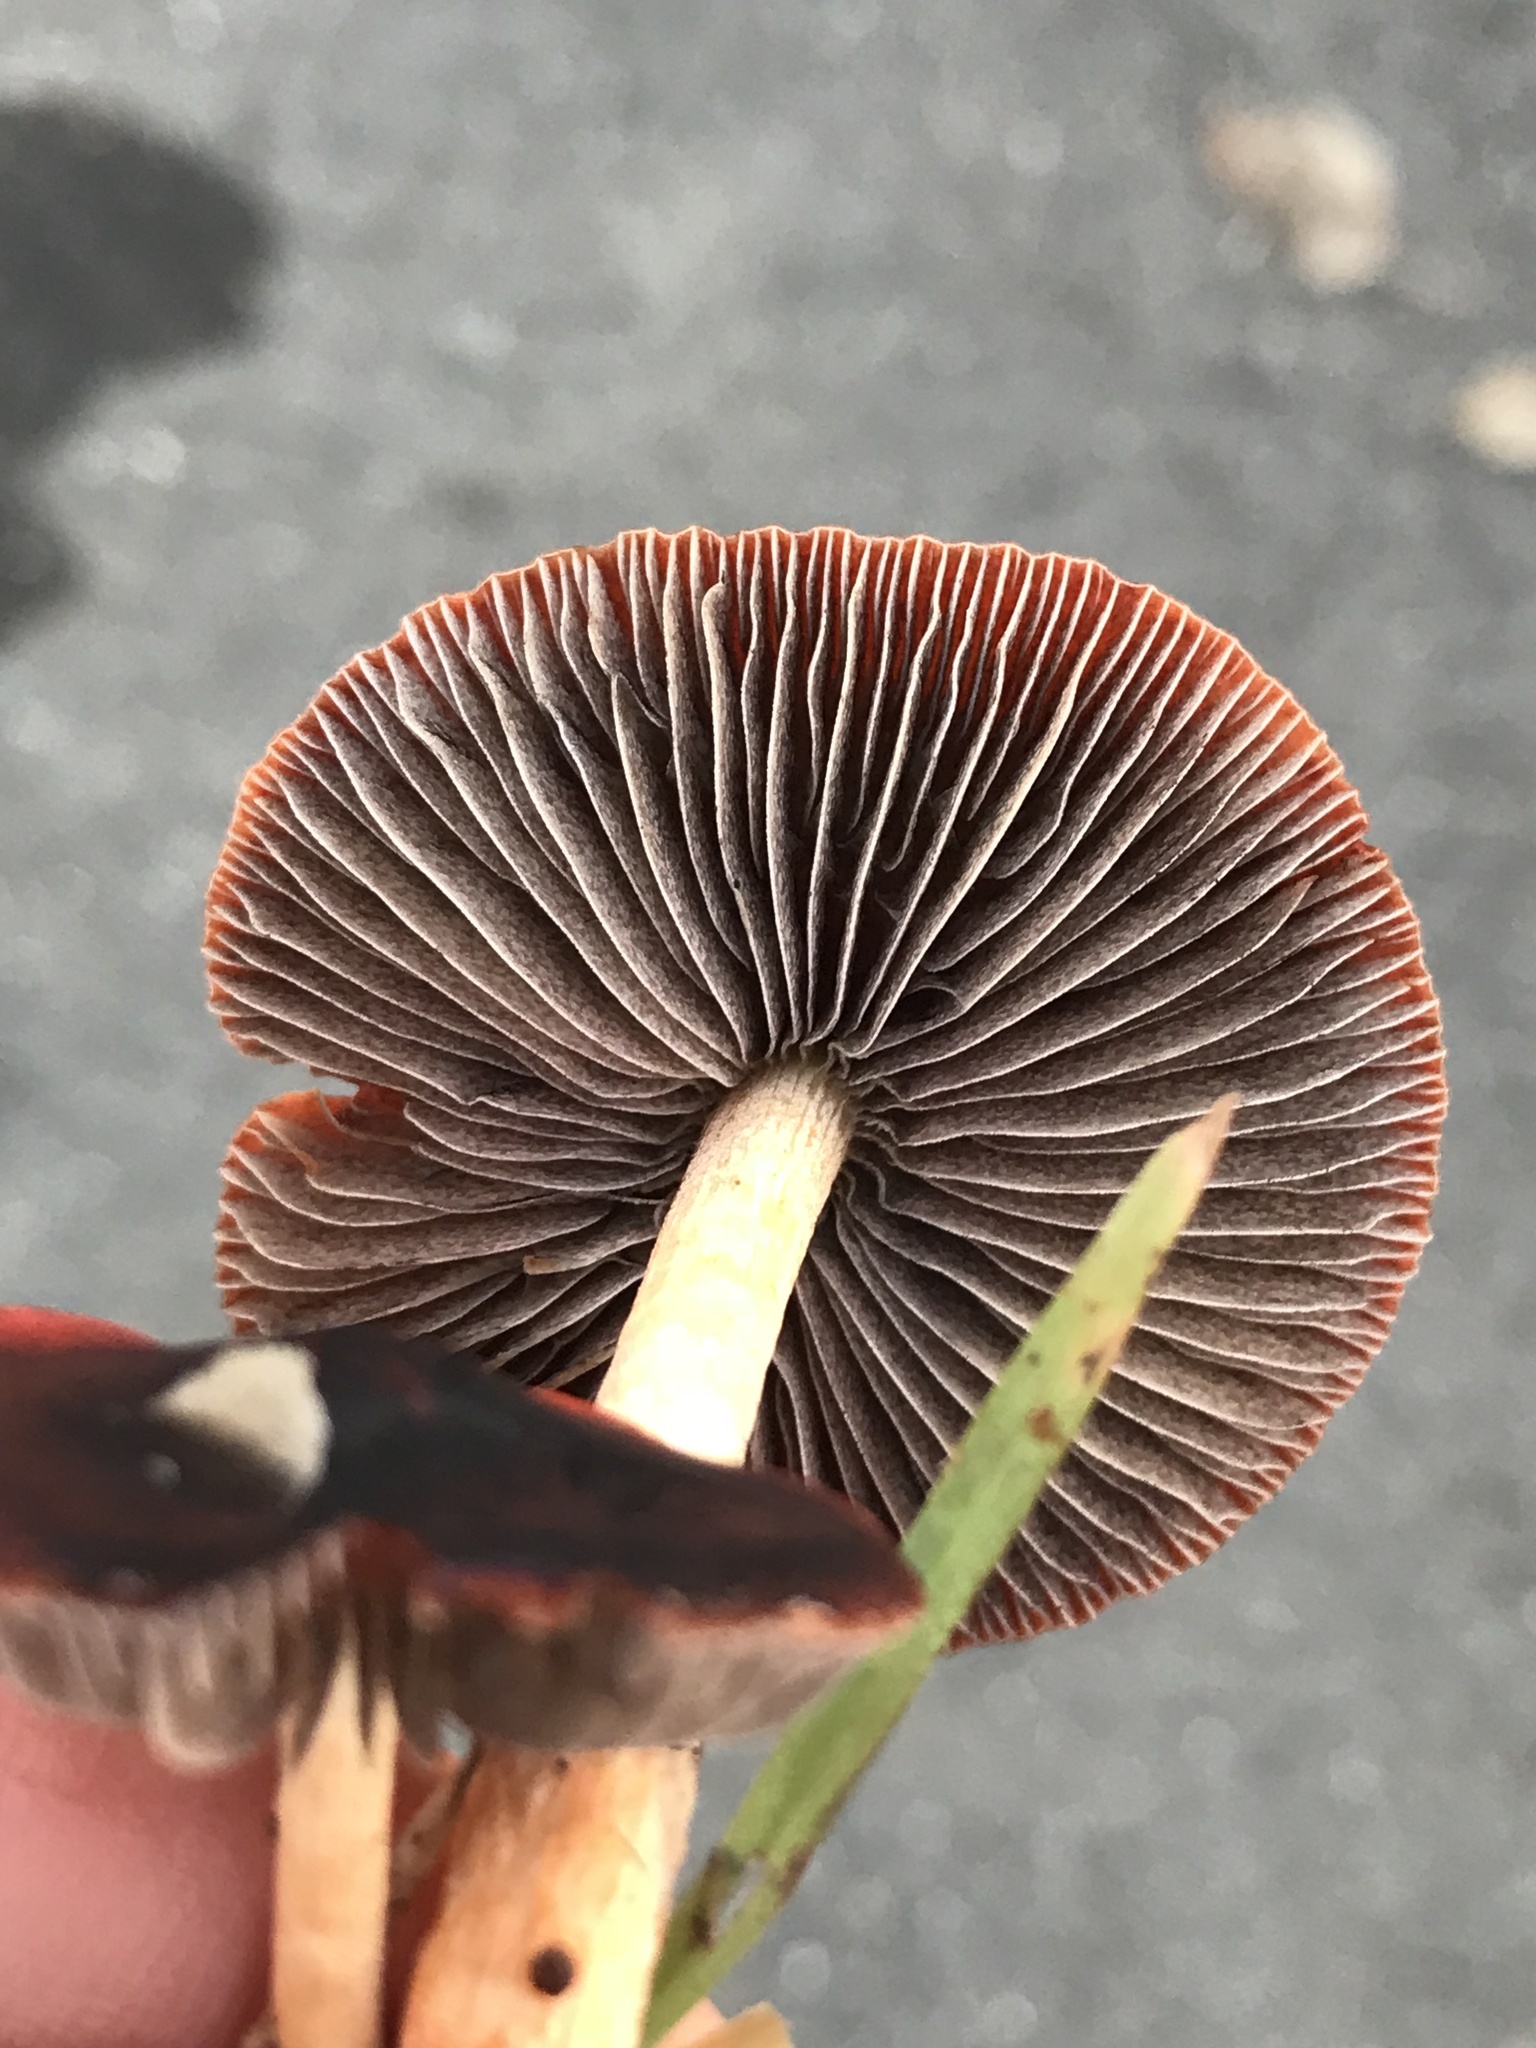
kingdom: Fungi
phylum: Basidiomycota
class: Agaricomycetes
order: Agaricales
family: Strophariaceae
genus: Leratiomyces
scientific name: Leratiomyces ceres
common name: Redlead roundhead
